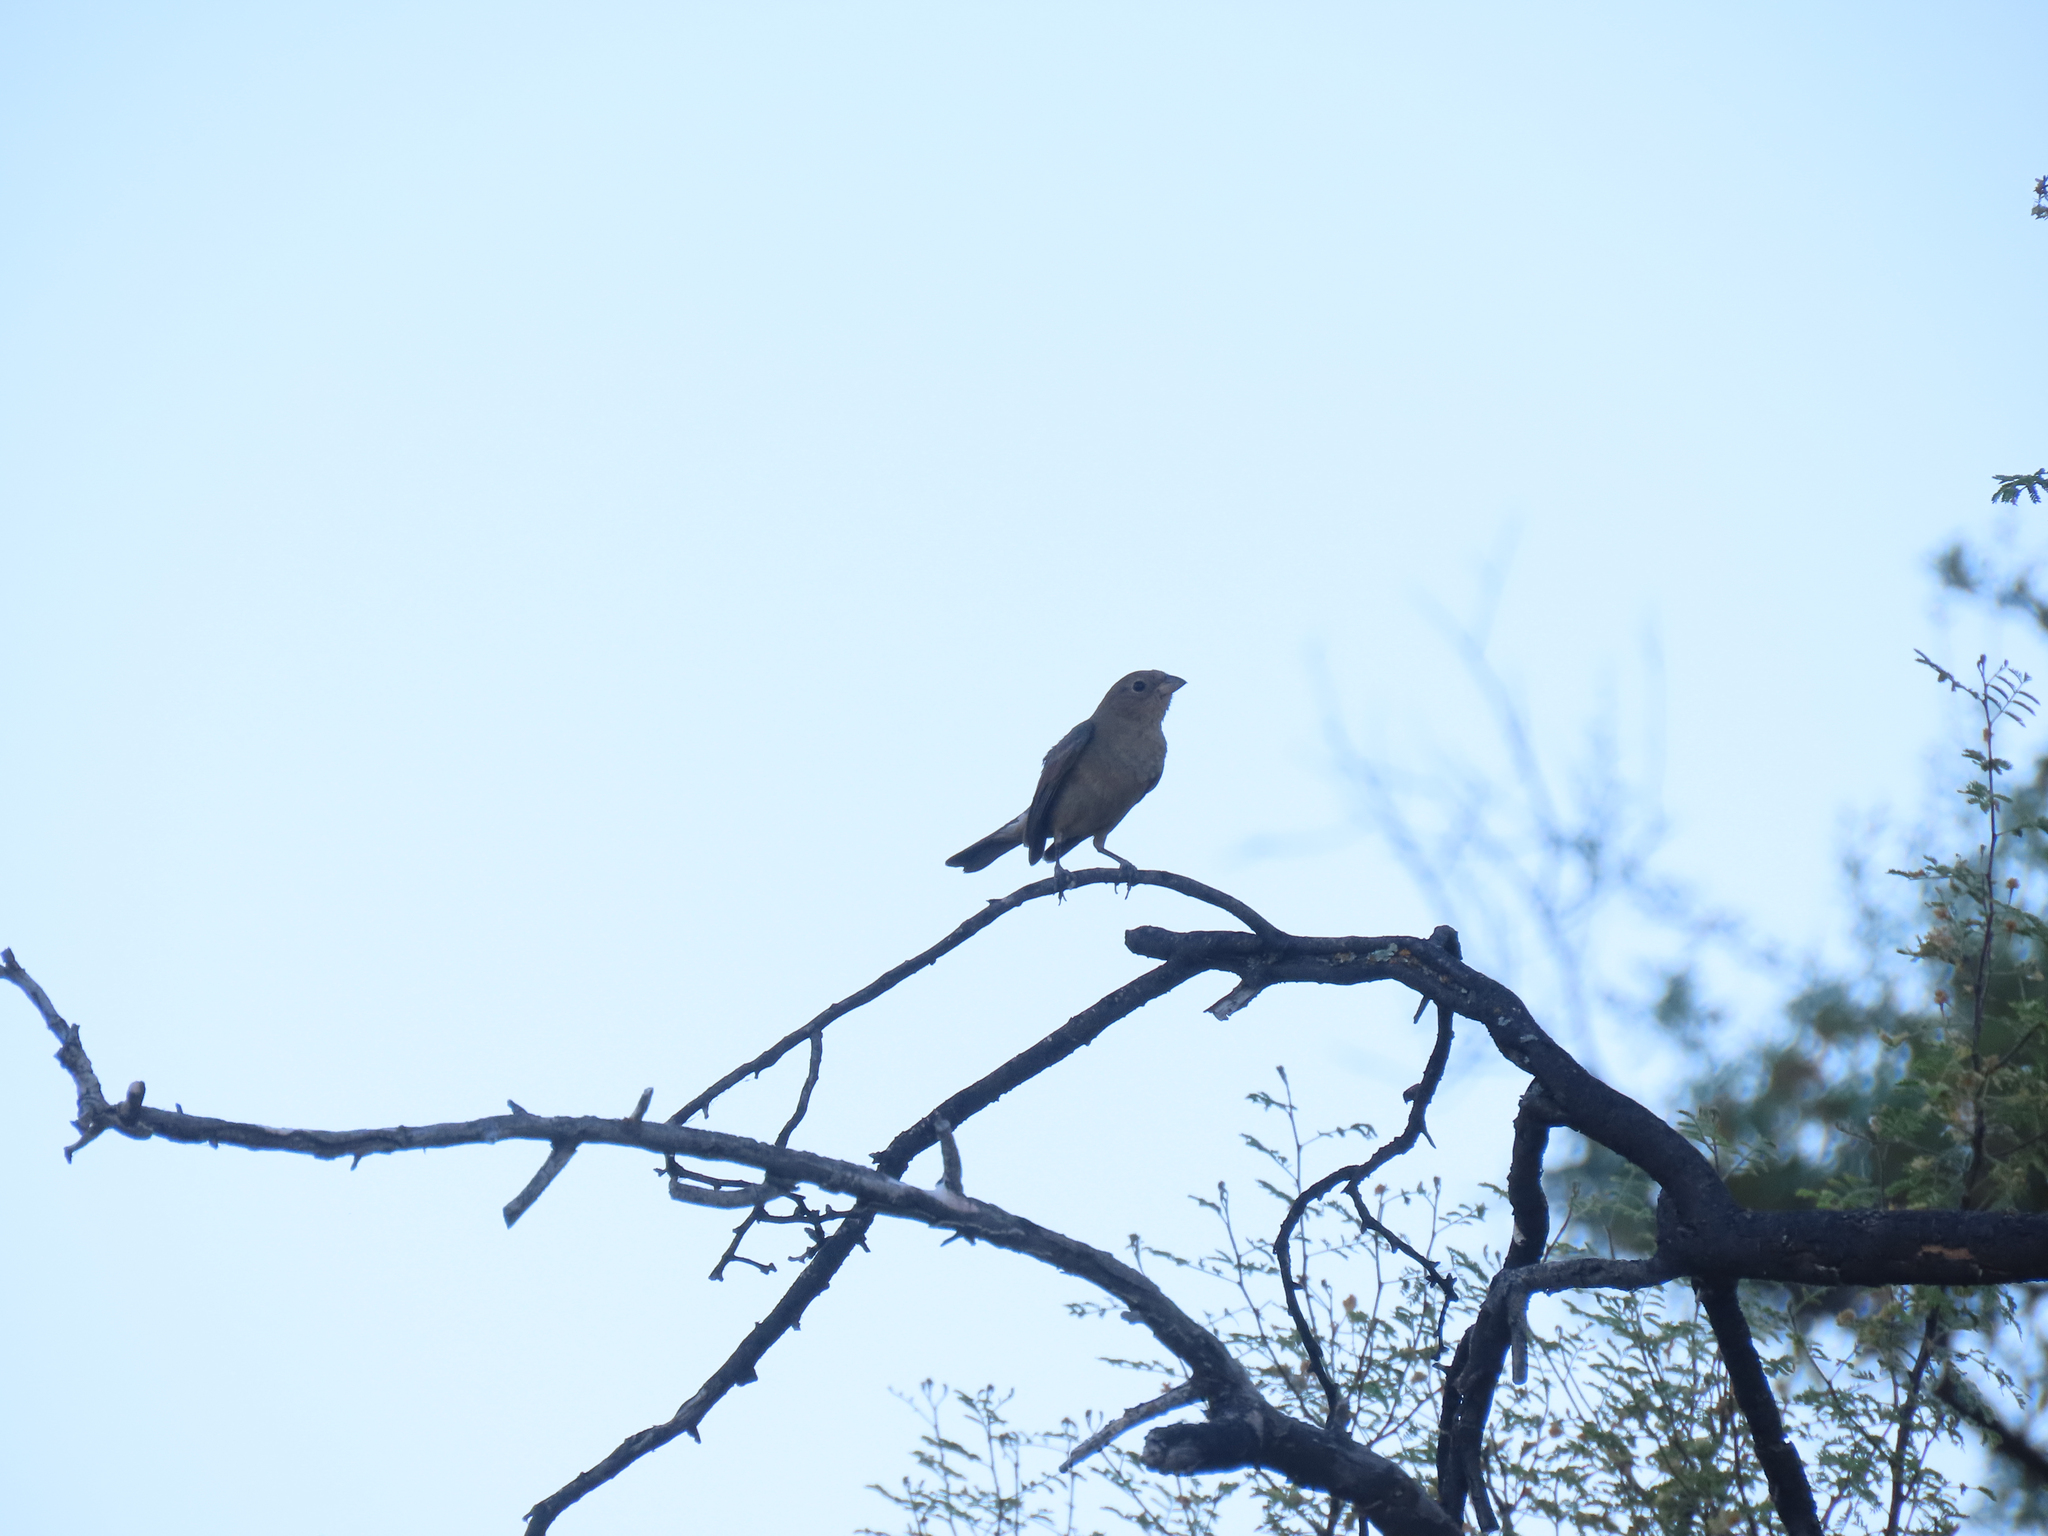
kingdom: Animalia
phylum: Chordata
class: Aves
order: Passeriformes
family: Cardinalidae
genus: Passerina
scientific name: Passerina versicolor
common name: Varied bunting
